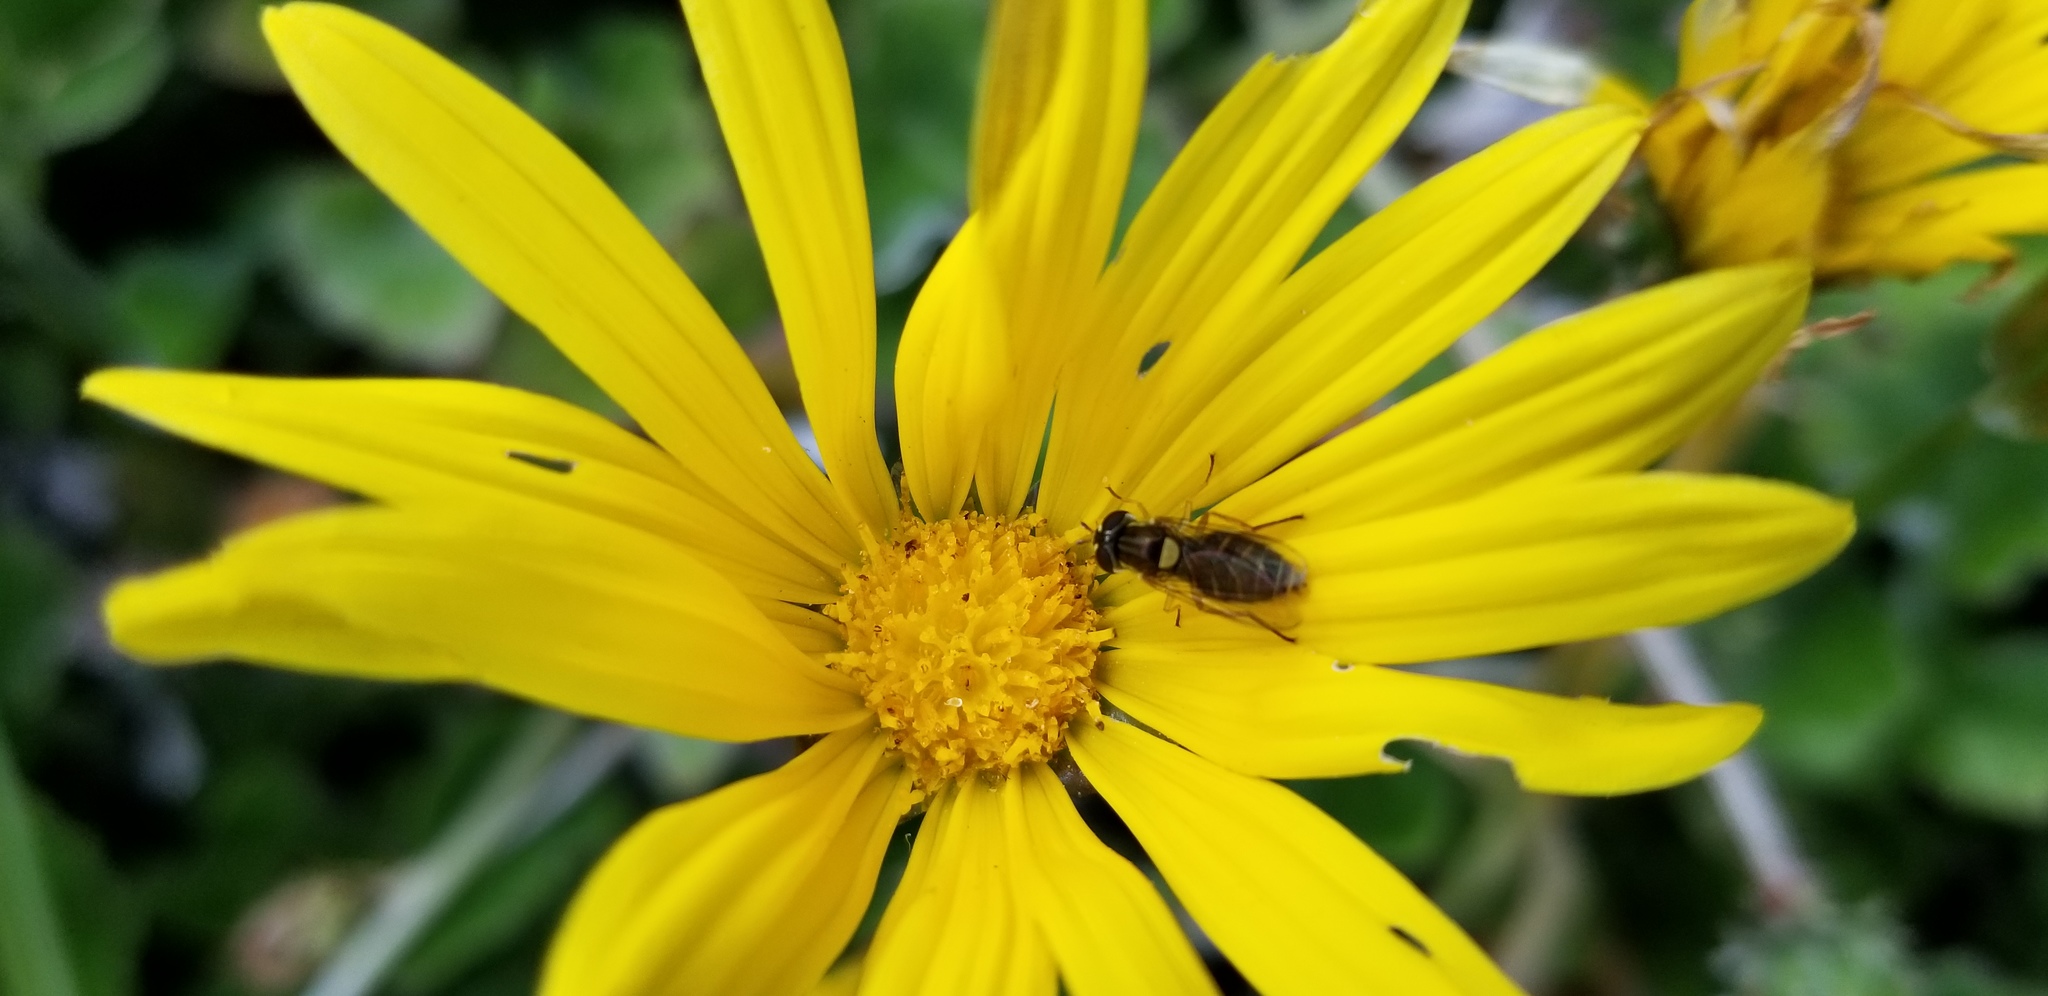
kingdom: Animalia
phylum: Arthropoda
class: Insecta
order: Diptera
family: Syrphidae
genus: Sphaerophoria
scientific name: Sphaerophoria sulphuripes
